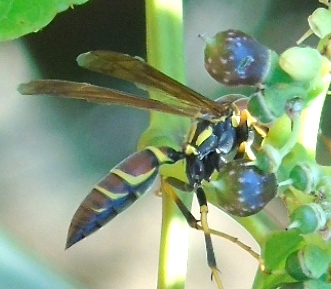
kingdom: Animalia
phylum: Arthropoda
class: Insecta
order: Hymenoptera
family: Eumenidae
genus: Polistes
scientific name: Polistes instabilis
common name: Unstable paper wasp
